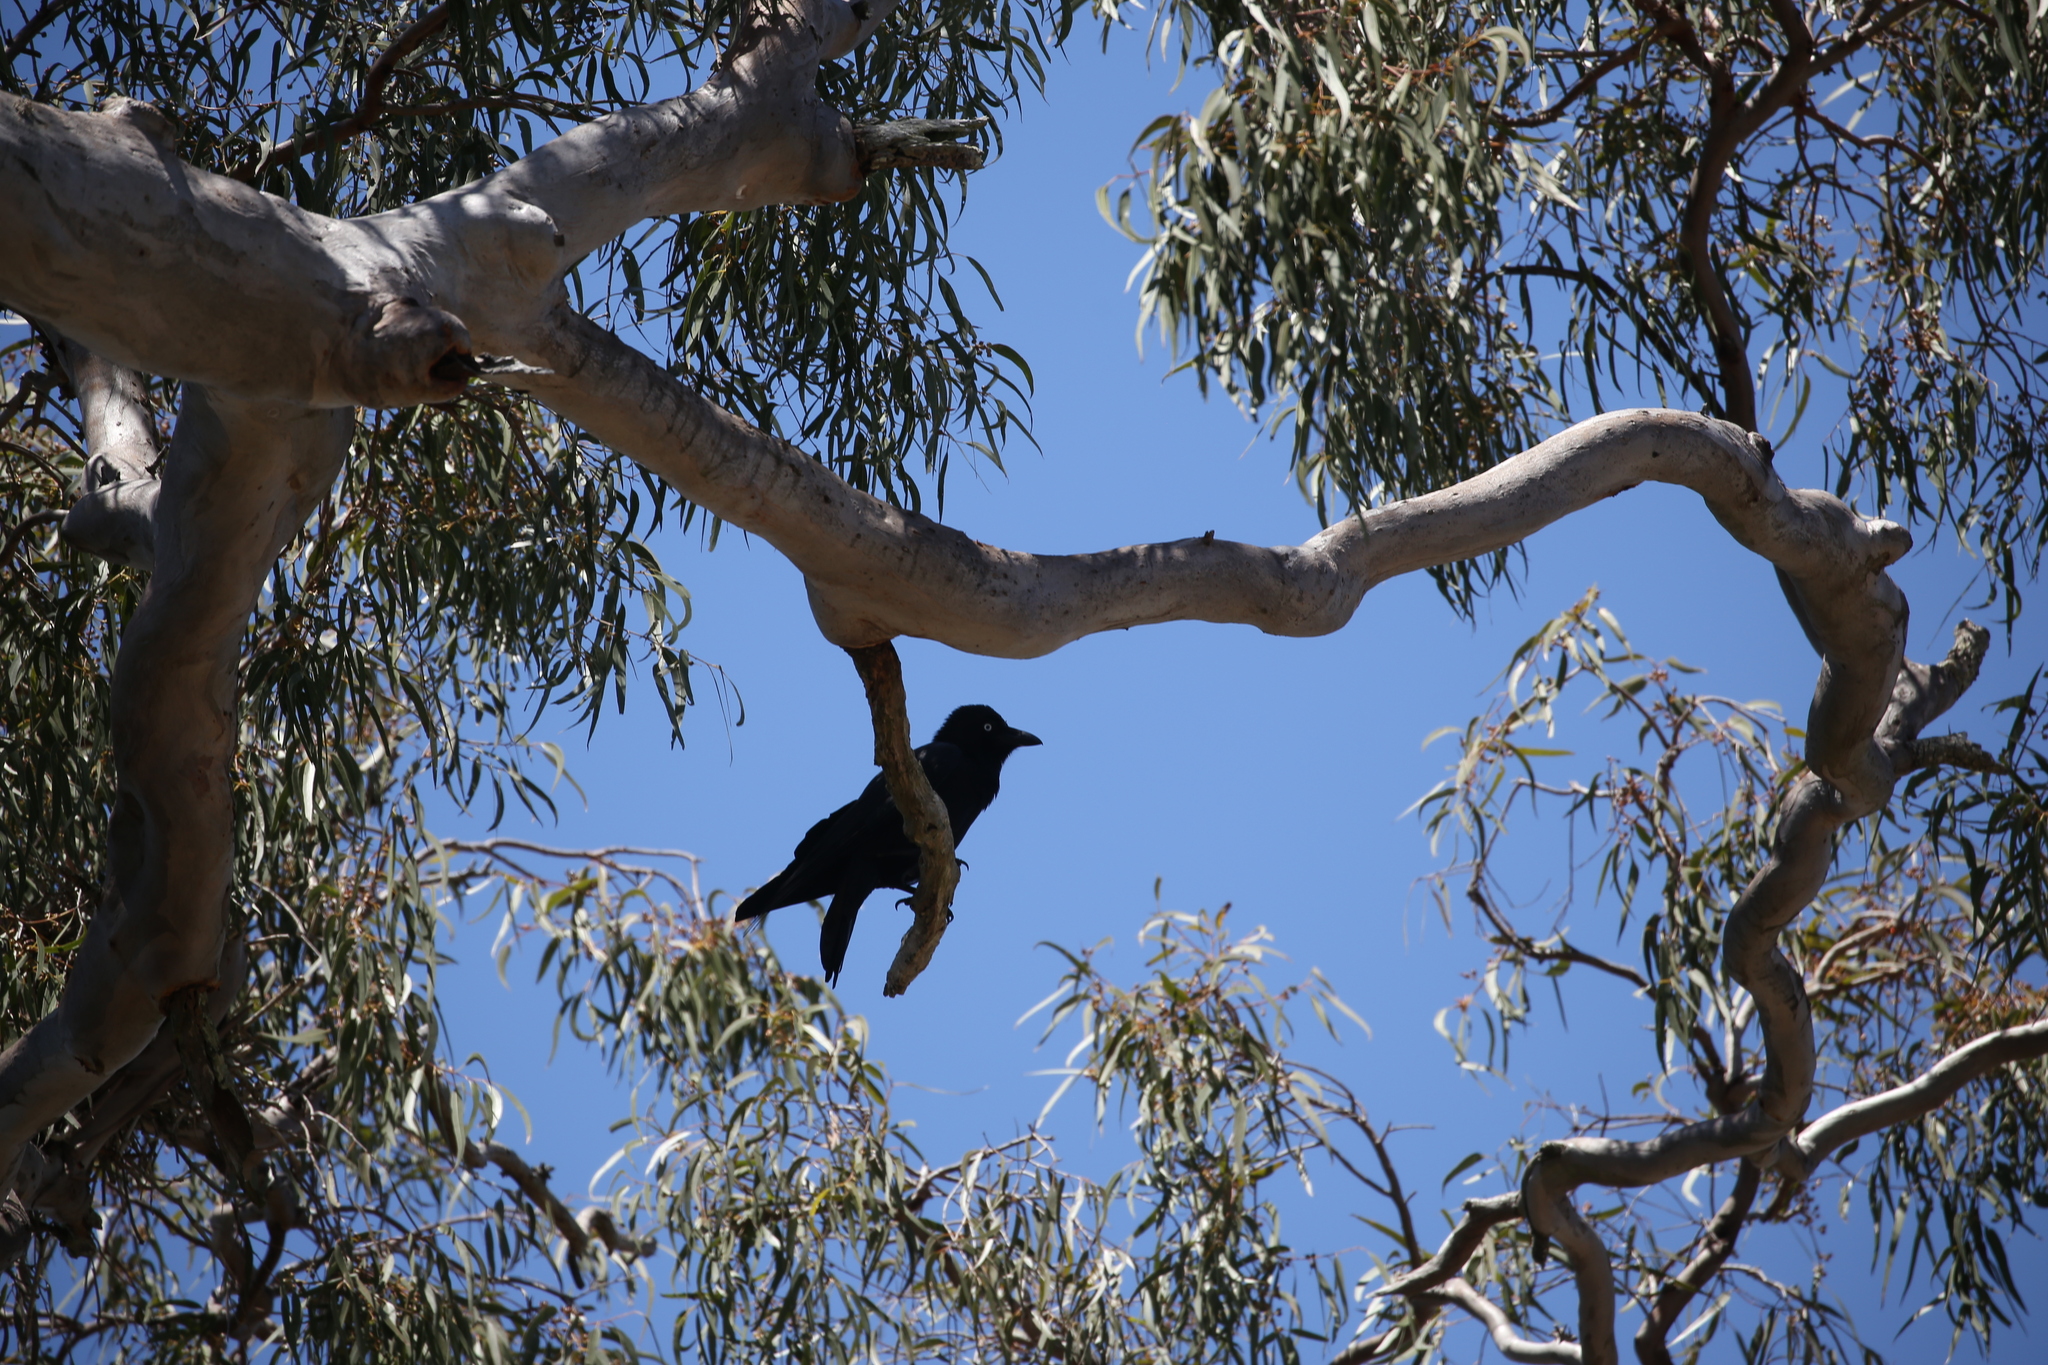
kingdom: Animalia
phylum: Chordata
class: Aves
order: Passeriformes
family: Corvidae
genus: Corvus
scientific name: Corvus orru
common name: Torresian crow
